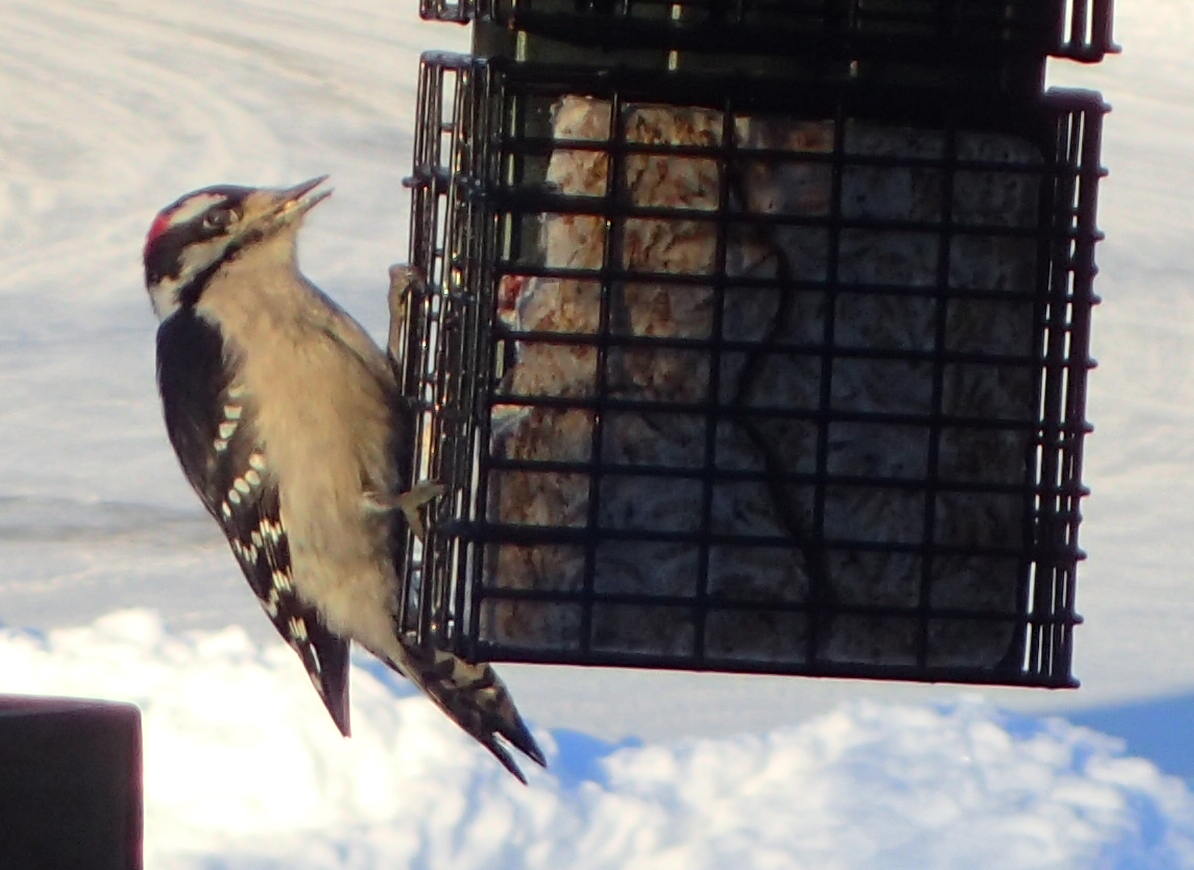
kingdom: Animalia
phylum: Chordata
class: Aves
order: Piciformes
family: Picidae
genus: Dryobates
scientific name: Dryobates pubescens
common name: Downy woodpecker
